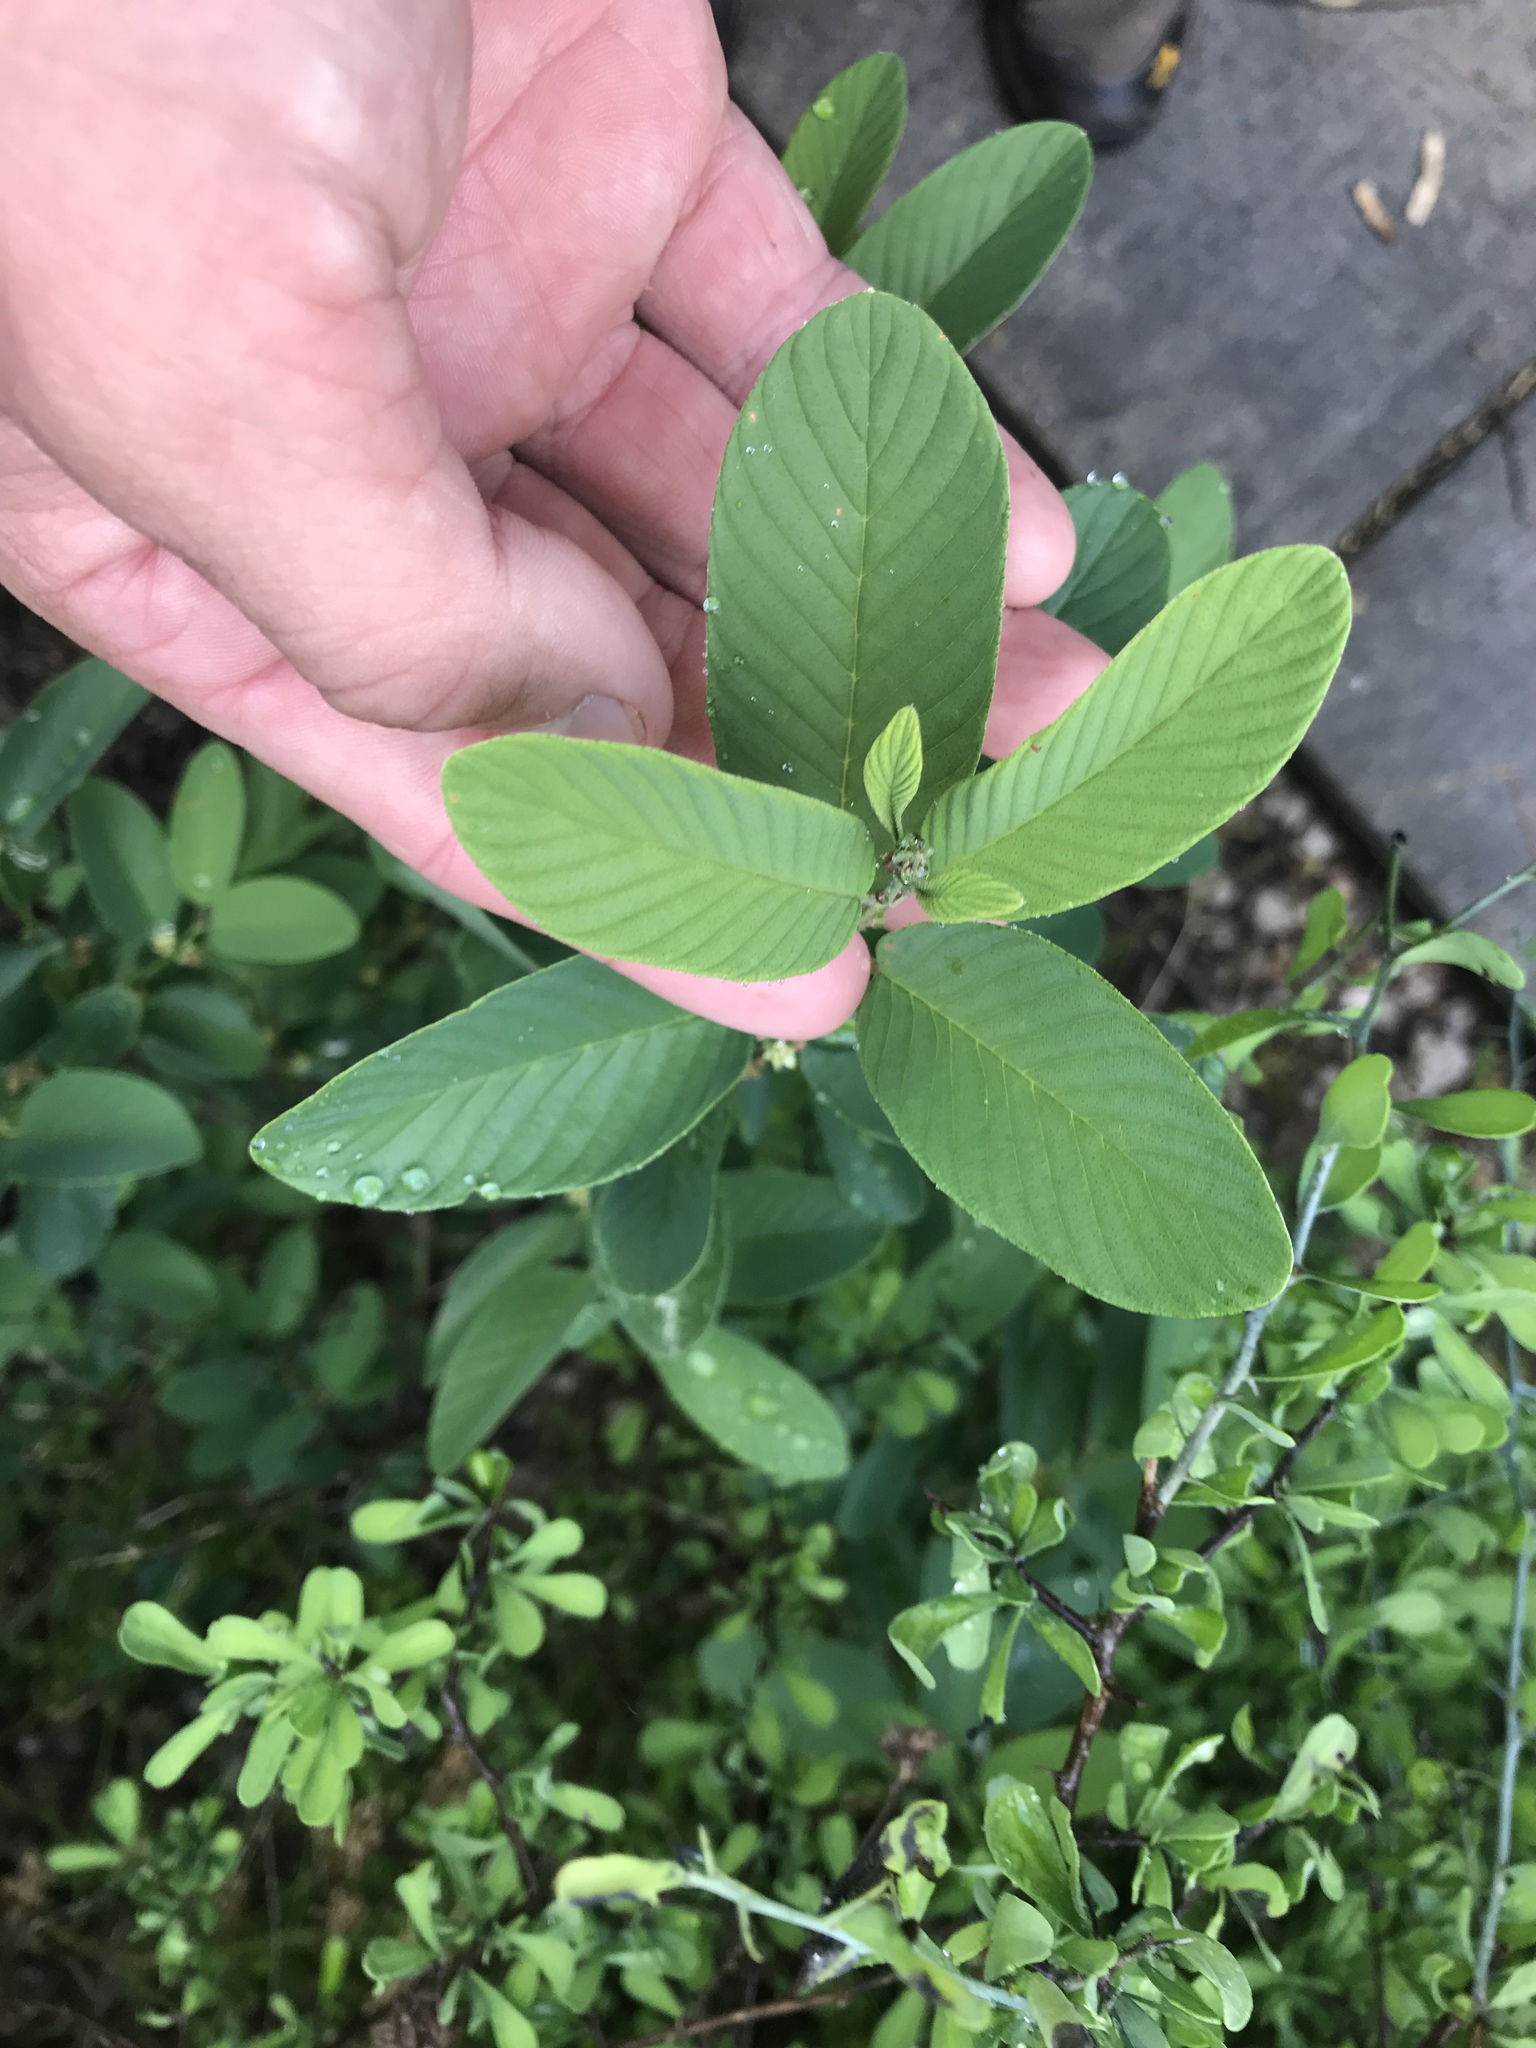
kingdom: Plantae
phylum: Tracheophyta
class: Magnoliopsida
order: Rosales
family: Rhamnaceae
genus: Karwinskia
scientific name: Karwinskia humboldtiana
